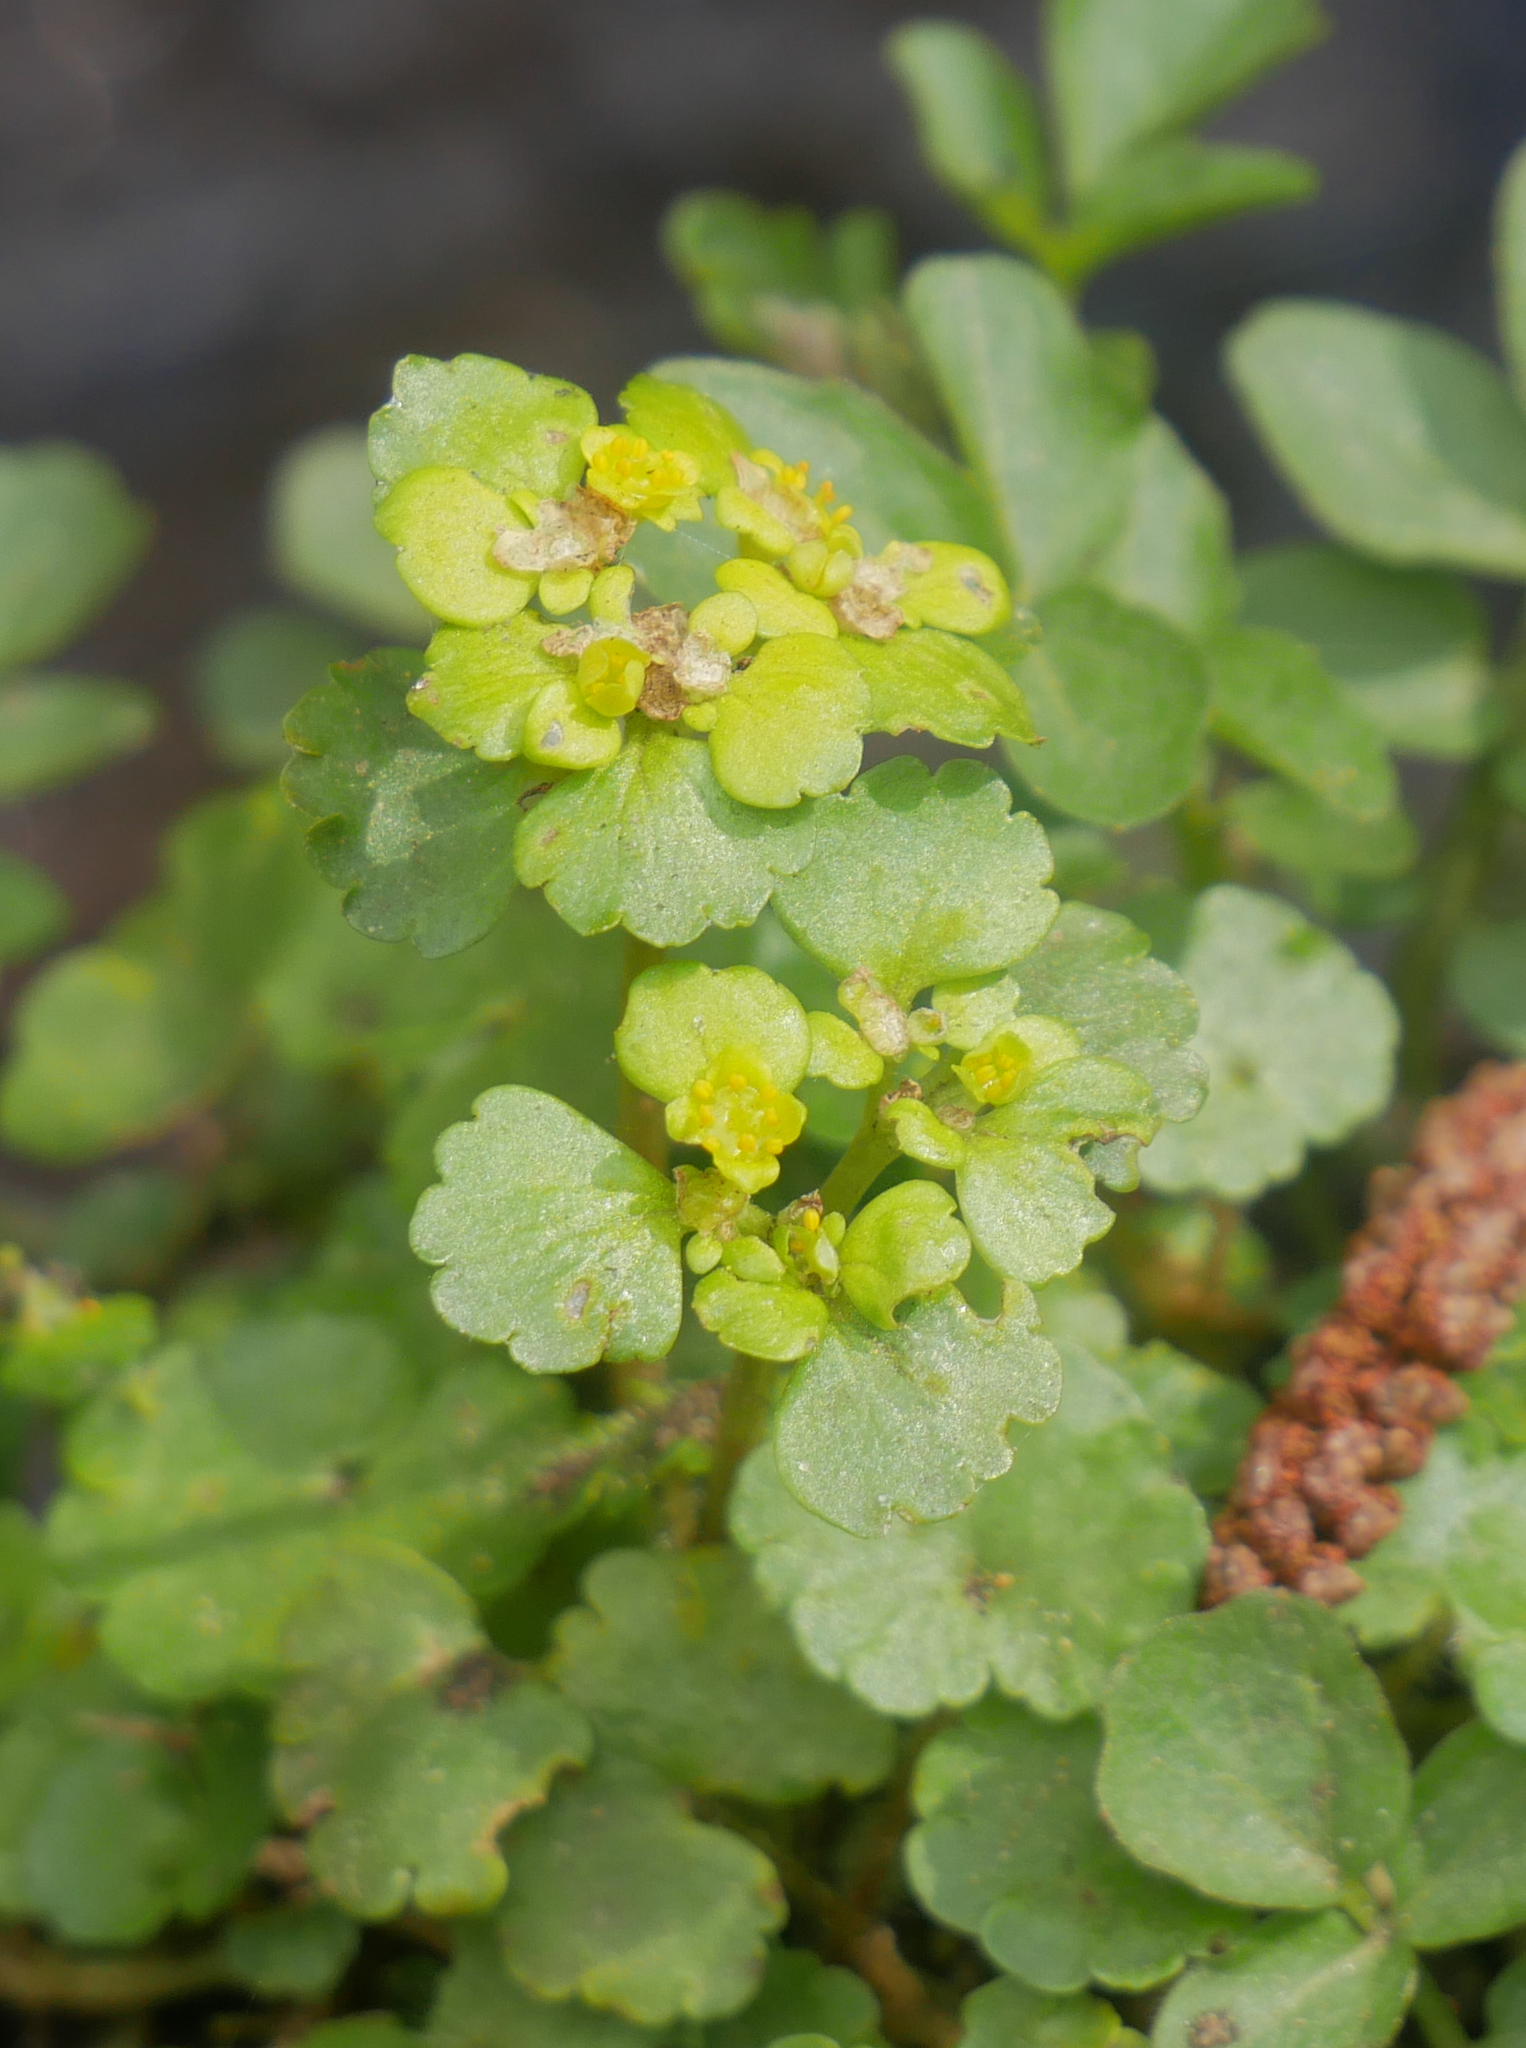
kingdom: Plantae
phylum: Tracheophyta
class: Magnoliopsida
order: Saxifragales
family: Saxifragaceae
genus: Chrysosplenium
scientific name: Chrysosplenium alternifolium
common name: Alternate-leaved golden-saxifrage
